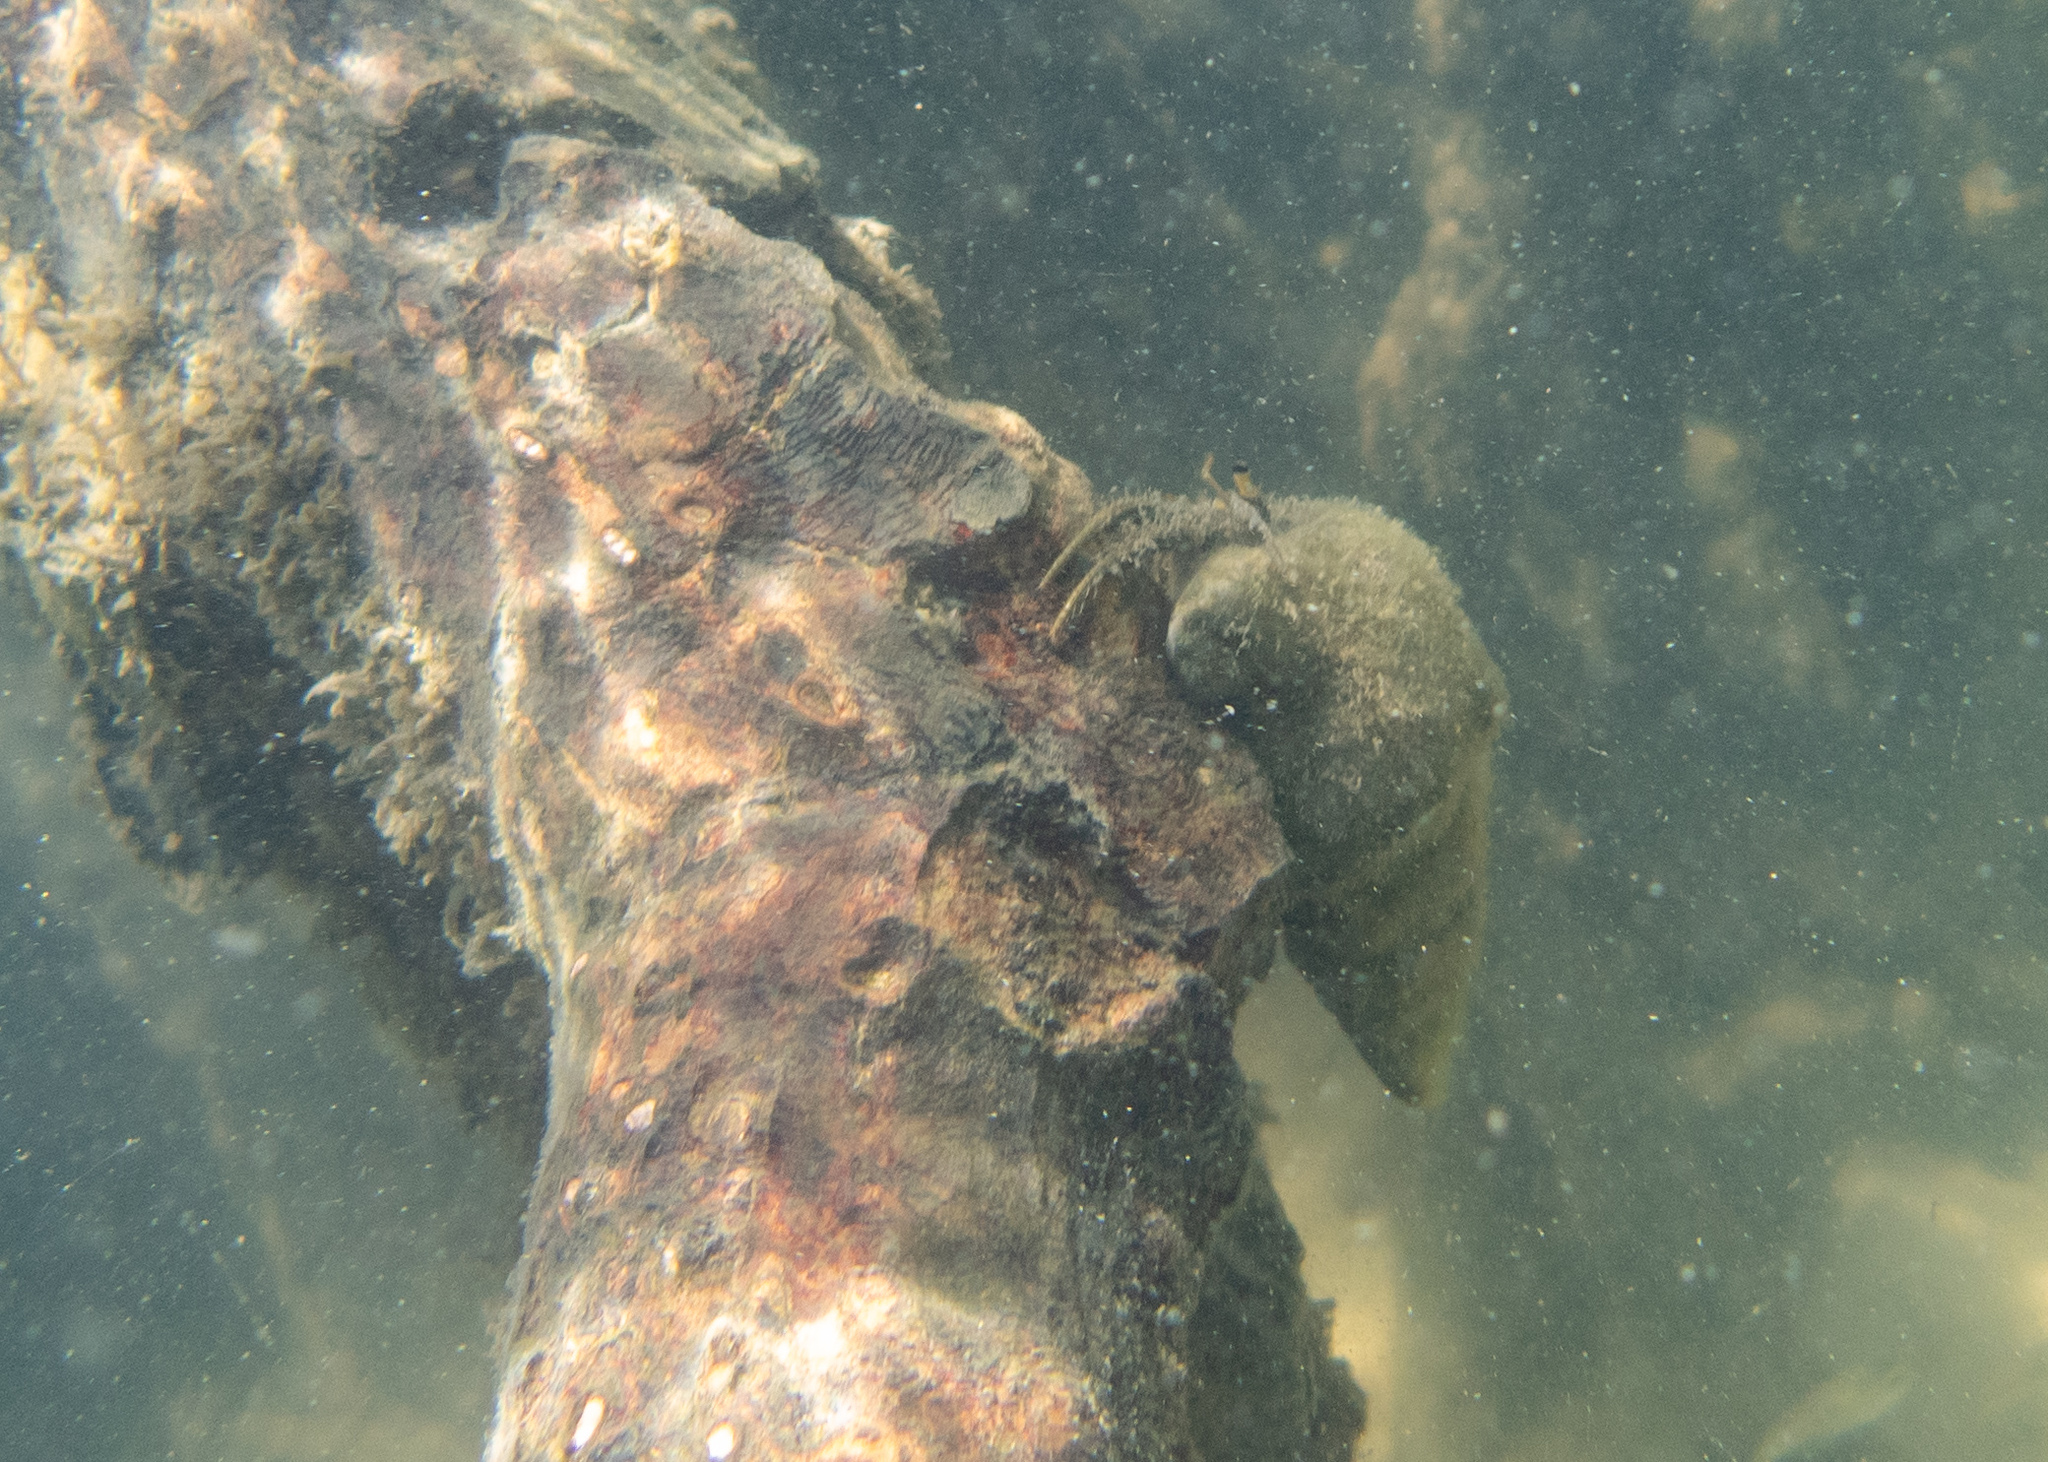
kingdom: Animalia
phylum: Arthropoda
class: Malacostraca
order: Decapoda
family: Diogenidae
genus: Clibanarius
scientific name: Clibanarius longitarsus
